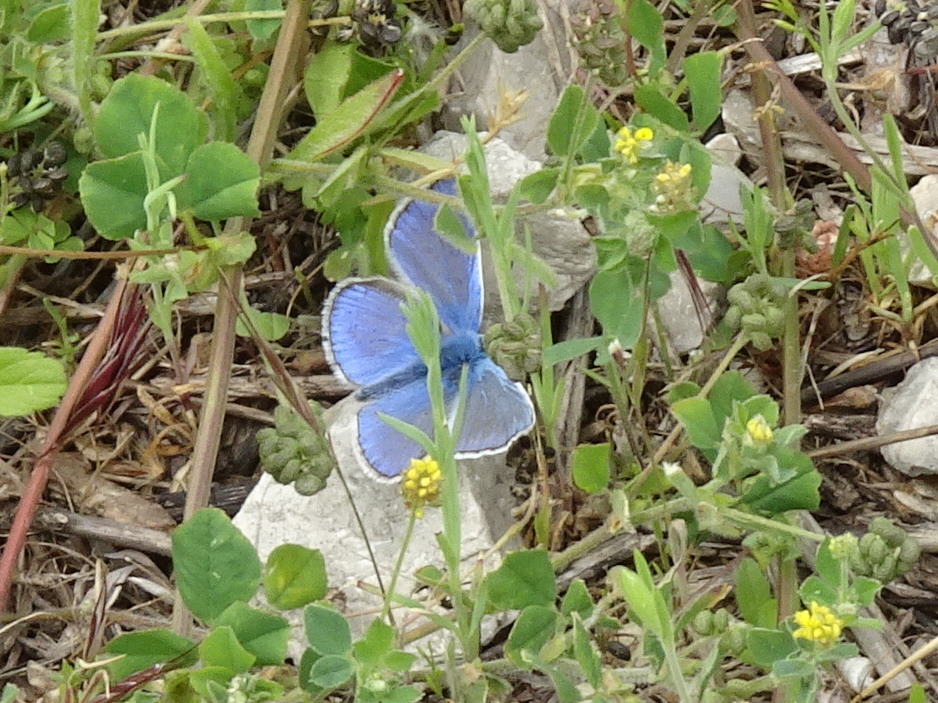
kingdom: Animalia
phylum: Arthropoda
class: Insecta
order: Lepidoptera
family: Lycaenidae
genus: Polyommatus
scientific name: Polyommatus icarus
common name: Common blue
